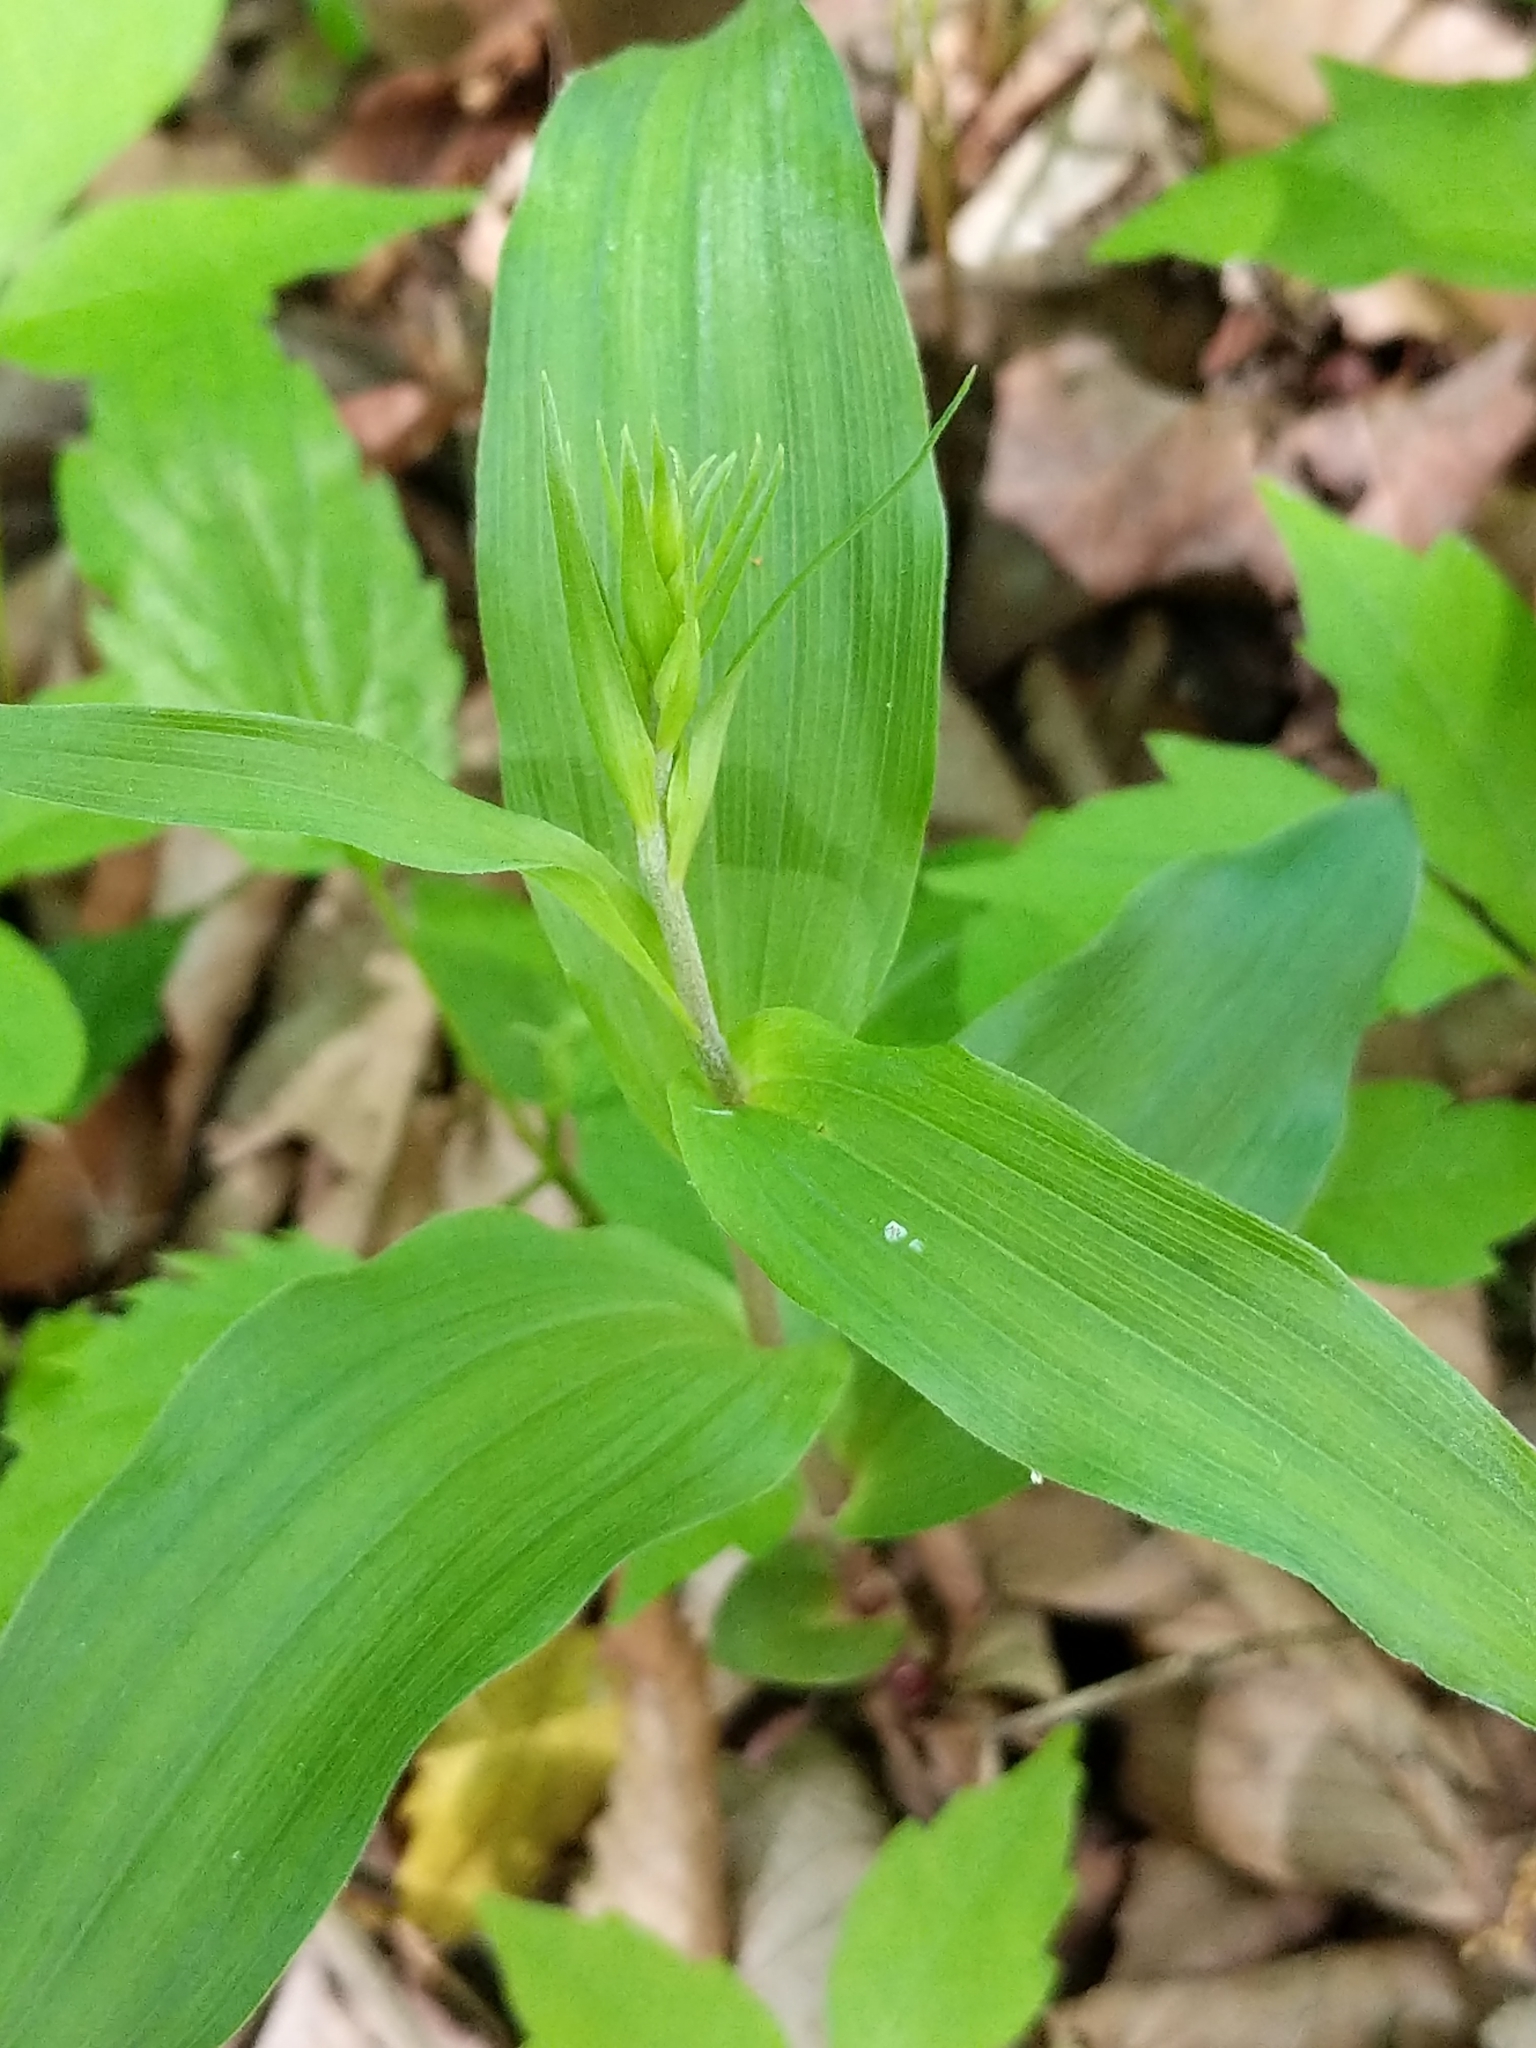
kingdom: Plantae
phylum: Tracheophyta
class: Liliopsida
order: Asparagales
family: Orchidaceae
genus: Epipactis
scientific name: Epipactis helleborine
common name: Broad-leaved helleborine
